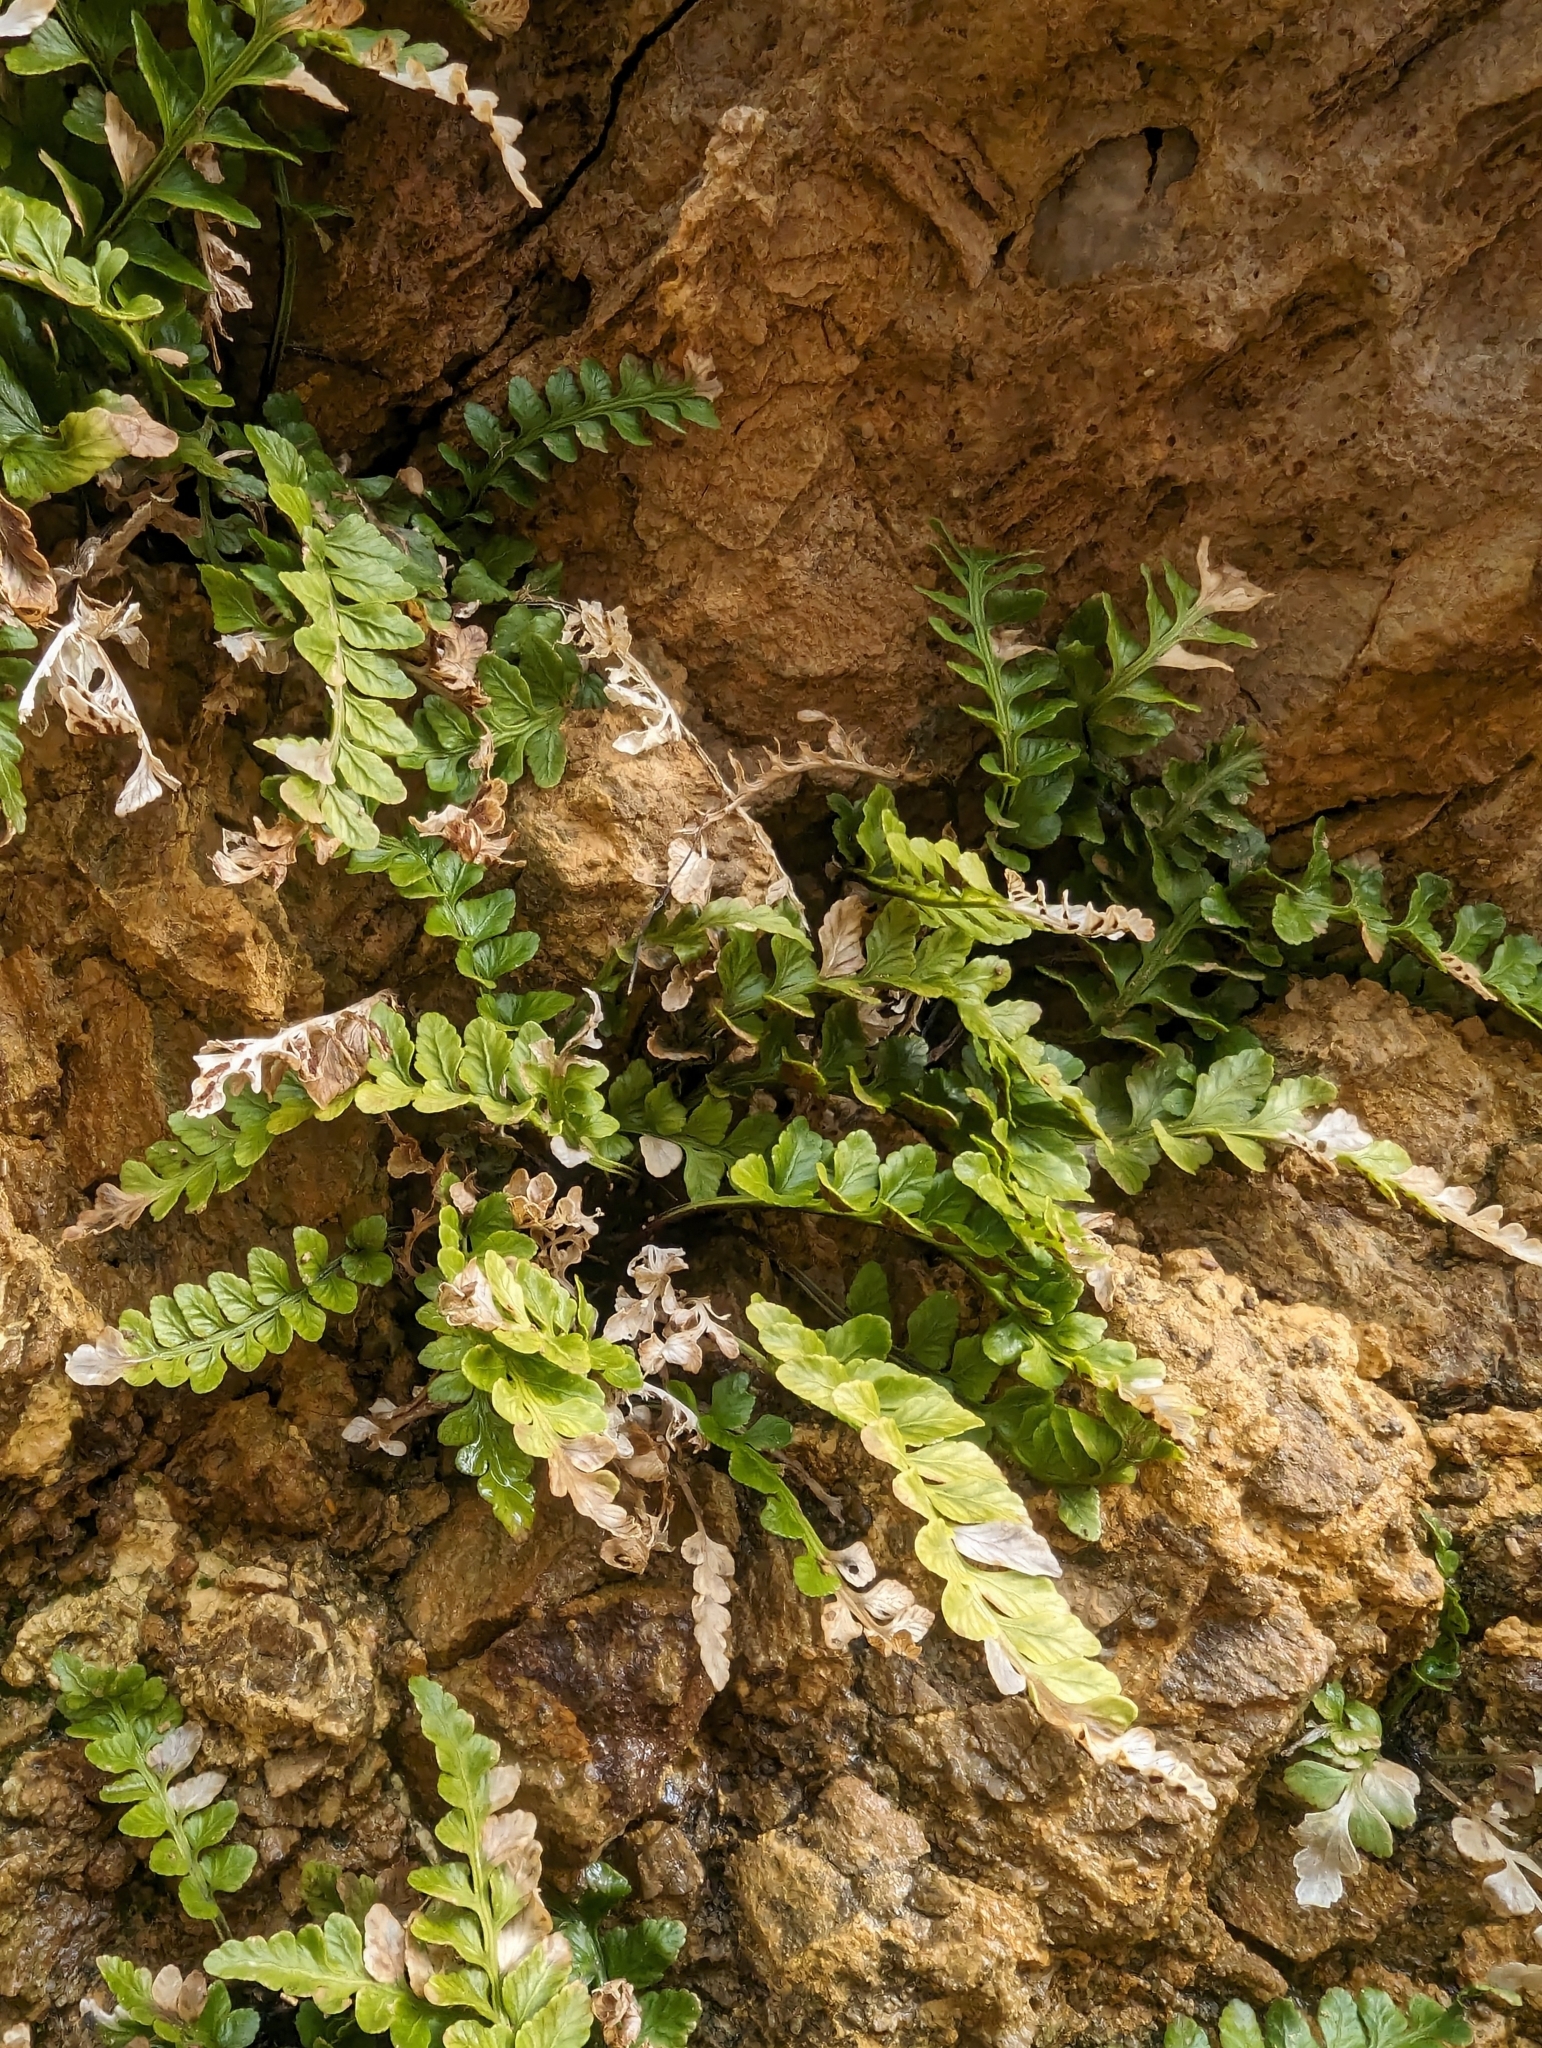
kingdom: Plantae
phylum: Tracheophyta
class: Polypodiopsida
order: Polypodiales
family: Aspleniaceae
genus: Asplenium
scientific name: Asplenium marinum
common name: Sea spleenwort
